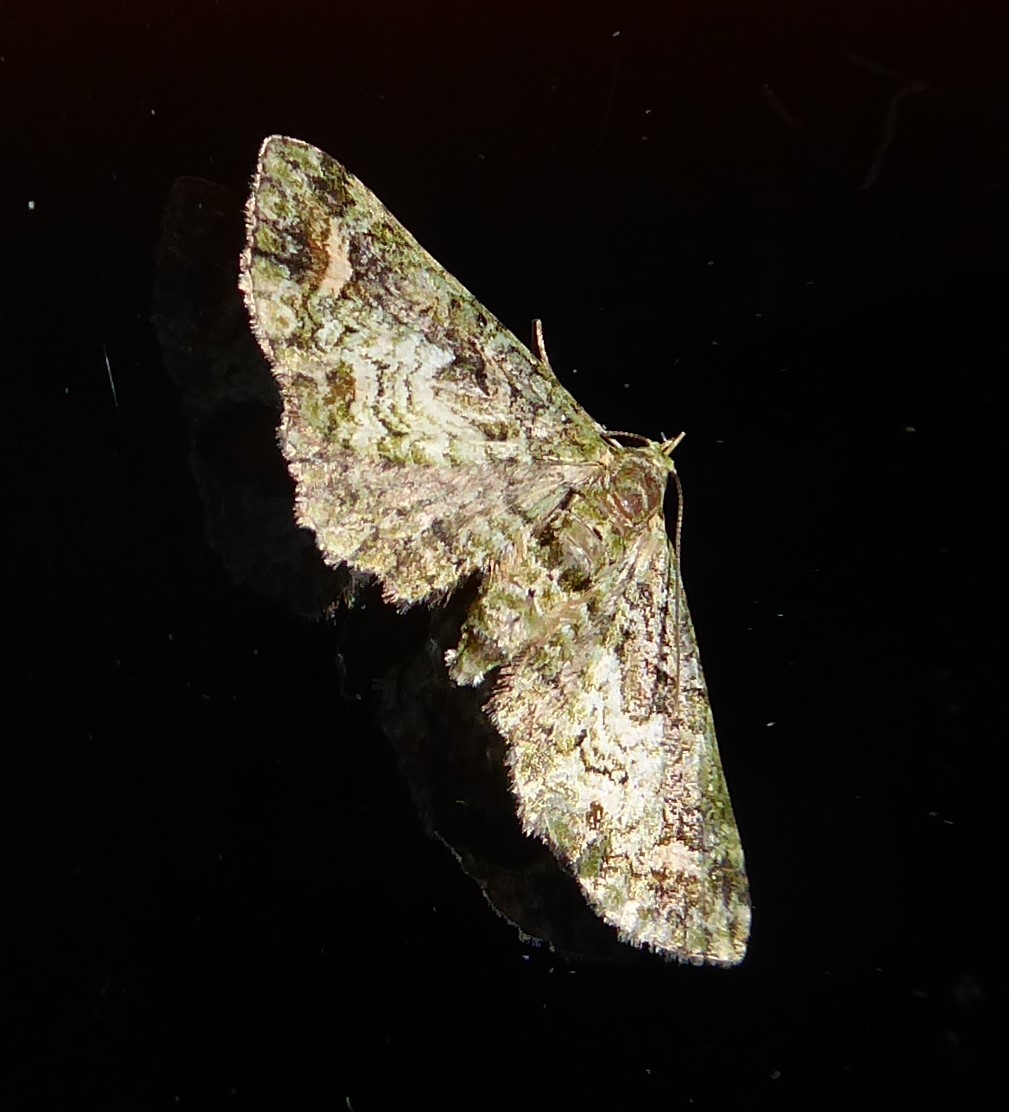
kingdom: Animalia
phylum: Arthropoda
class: Insecta
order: Lepidoptera
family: Geometridae
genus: Idaea
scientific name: Idaea mutanda
